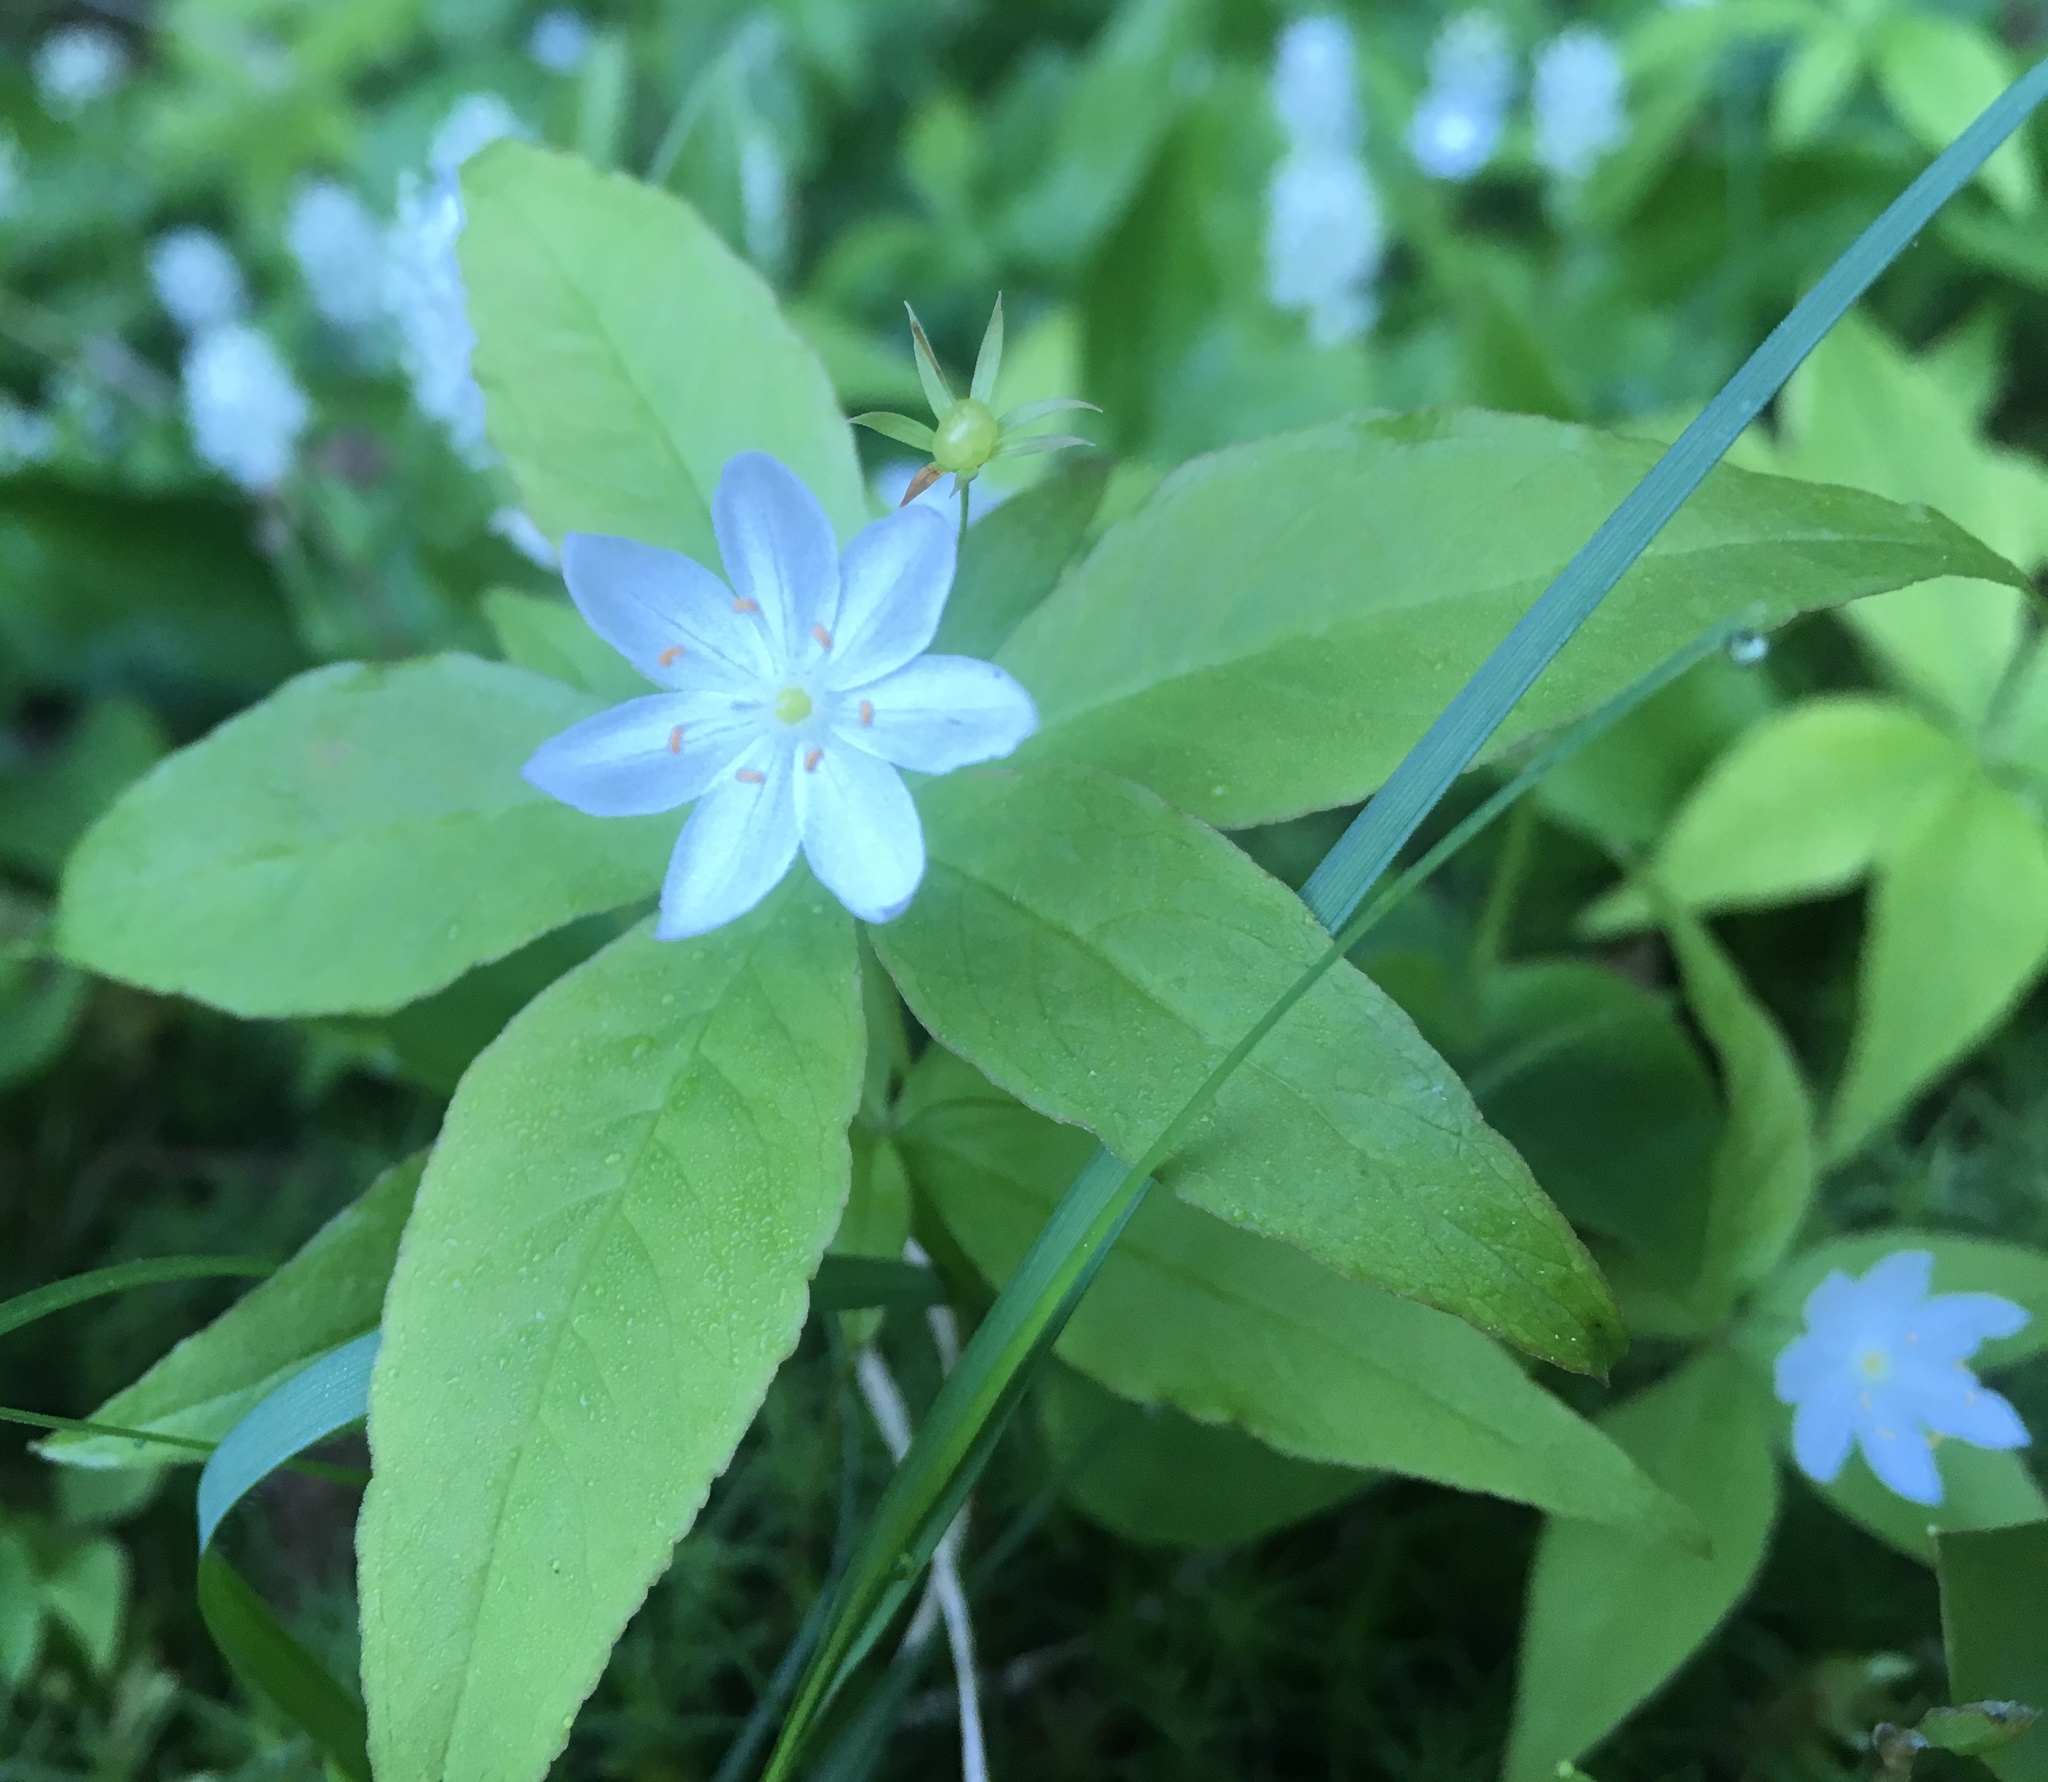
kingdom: Plantae
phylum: Tracheophyta
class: Magnoliopsida
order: Ericales
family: Primulaceae
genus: Lysimachia
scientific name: Lysimachia borealis
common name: American starflower
